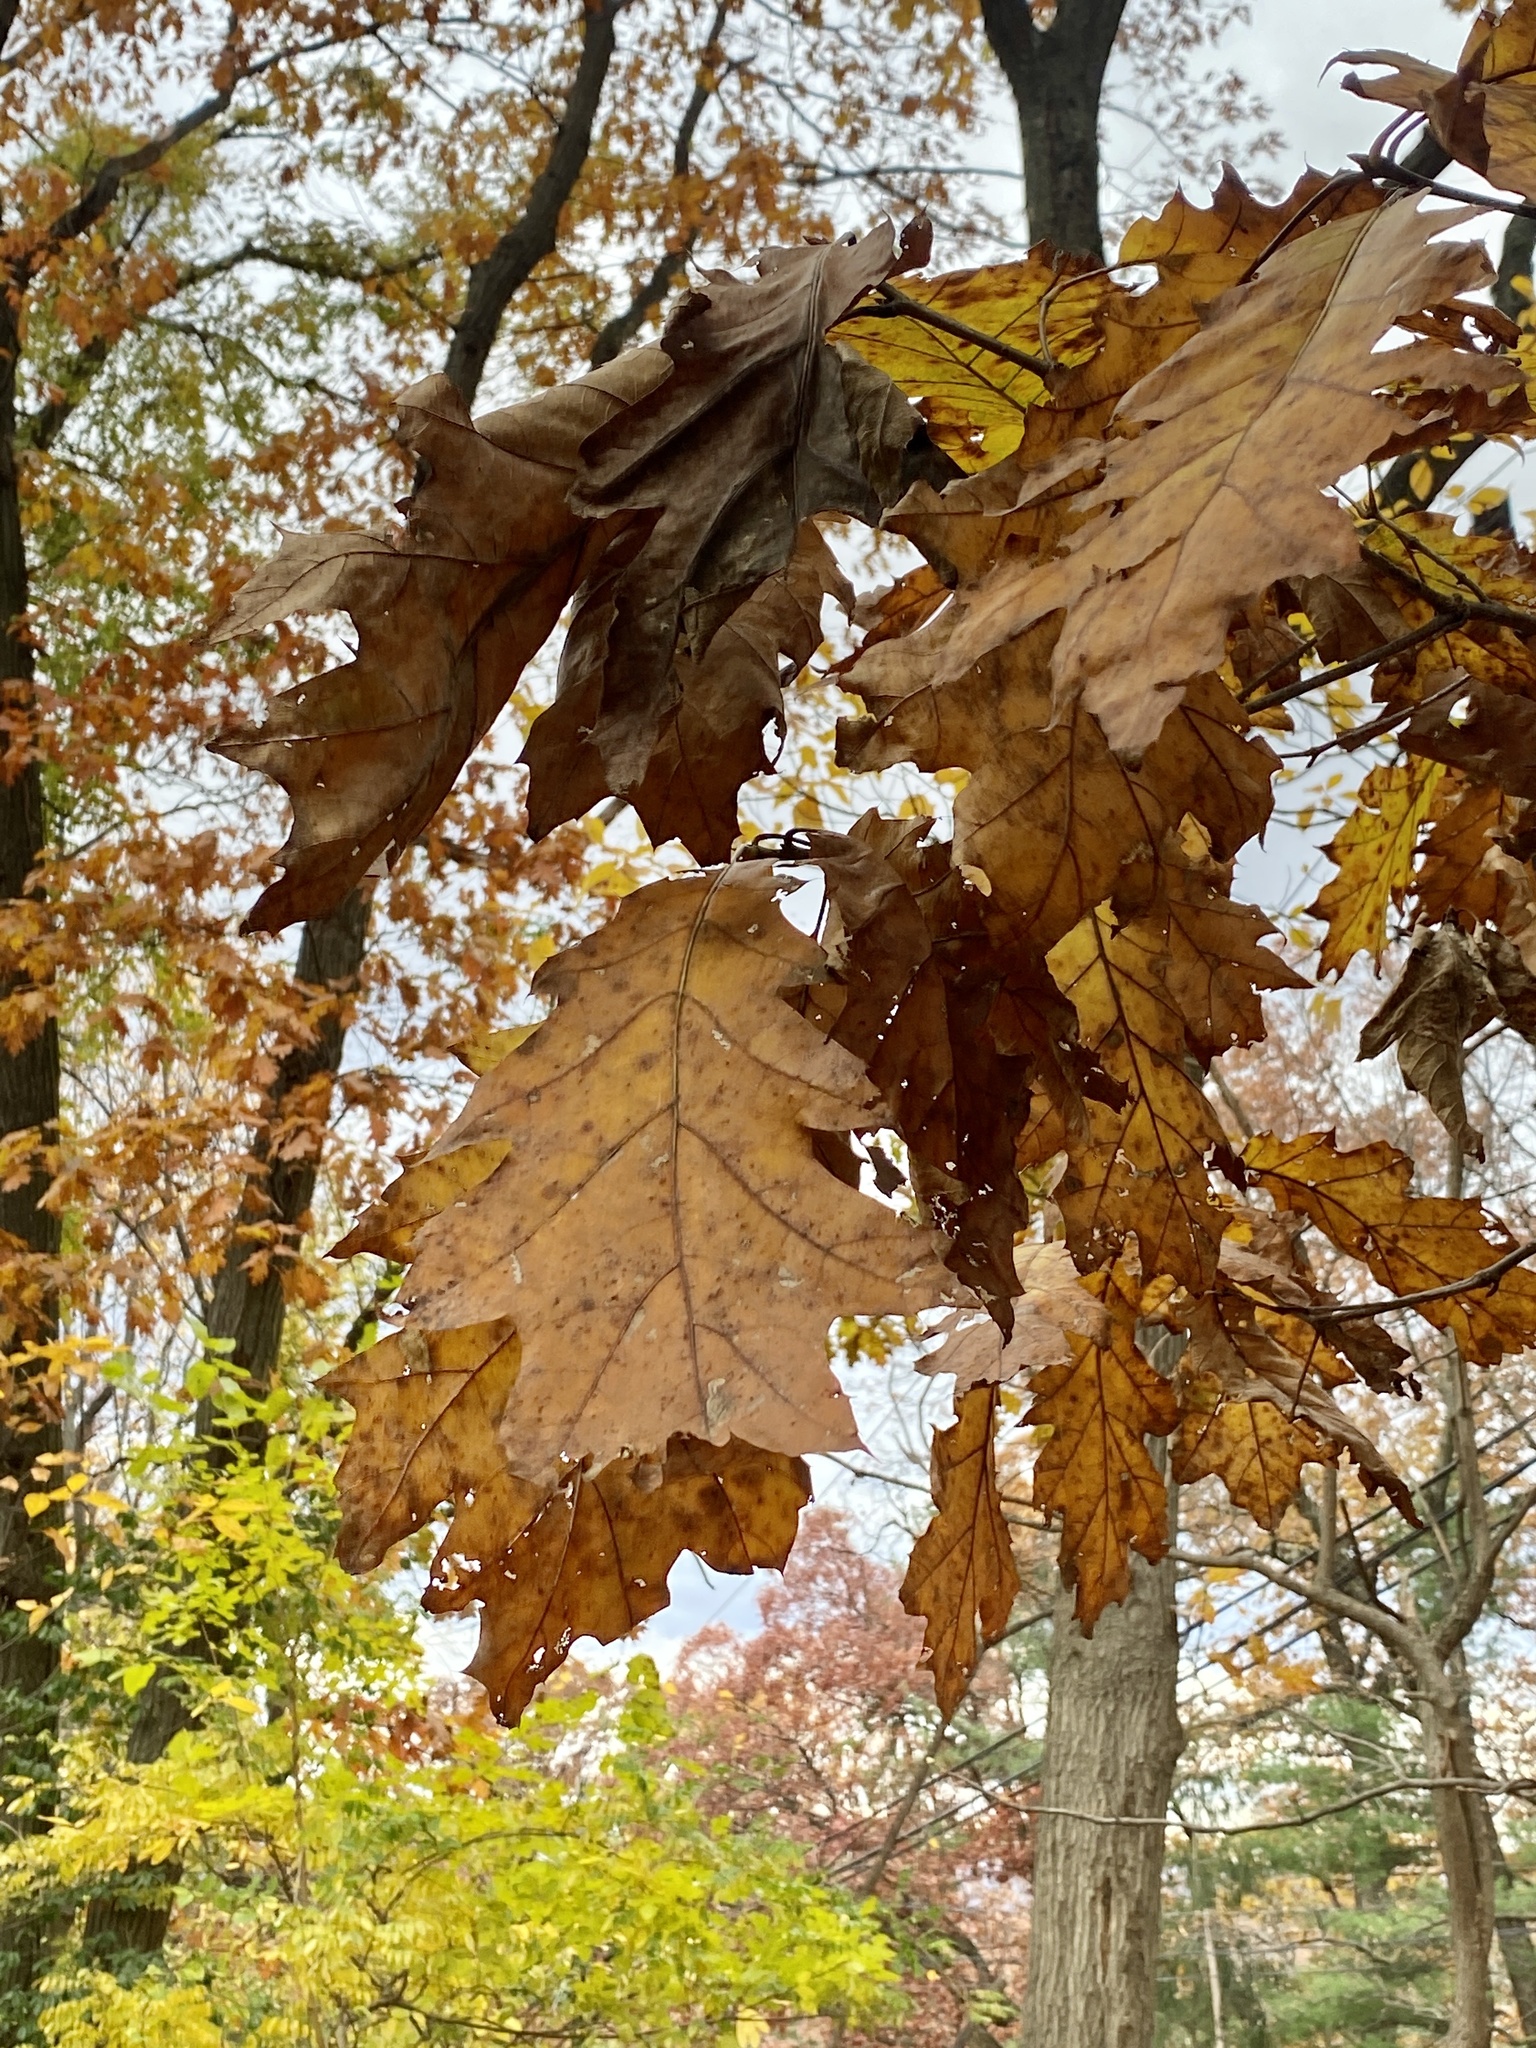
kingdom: Plantae
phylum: Tracheophyta
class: Magnoliopsida
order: Fagales
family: Fagaceae
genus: Quercus
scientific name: Quercus rubra
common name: Red oak
